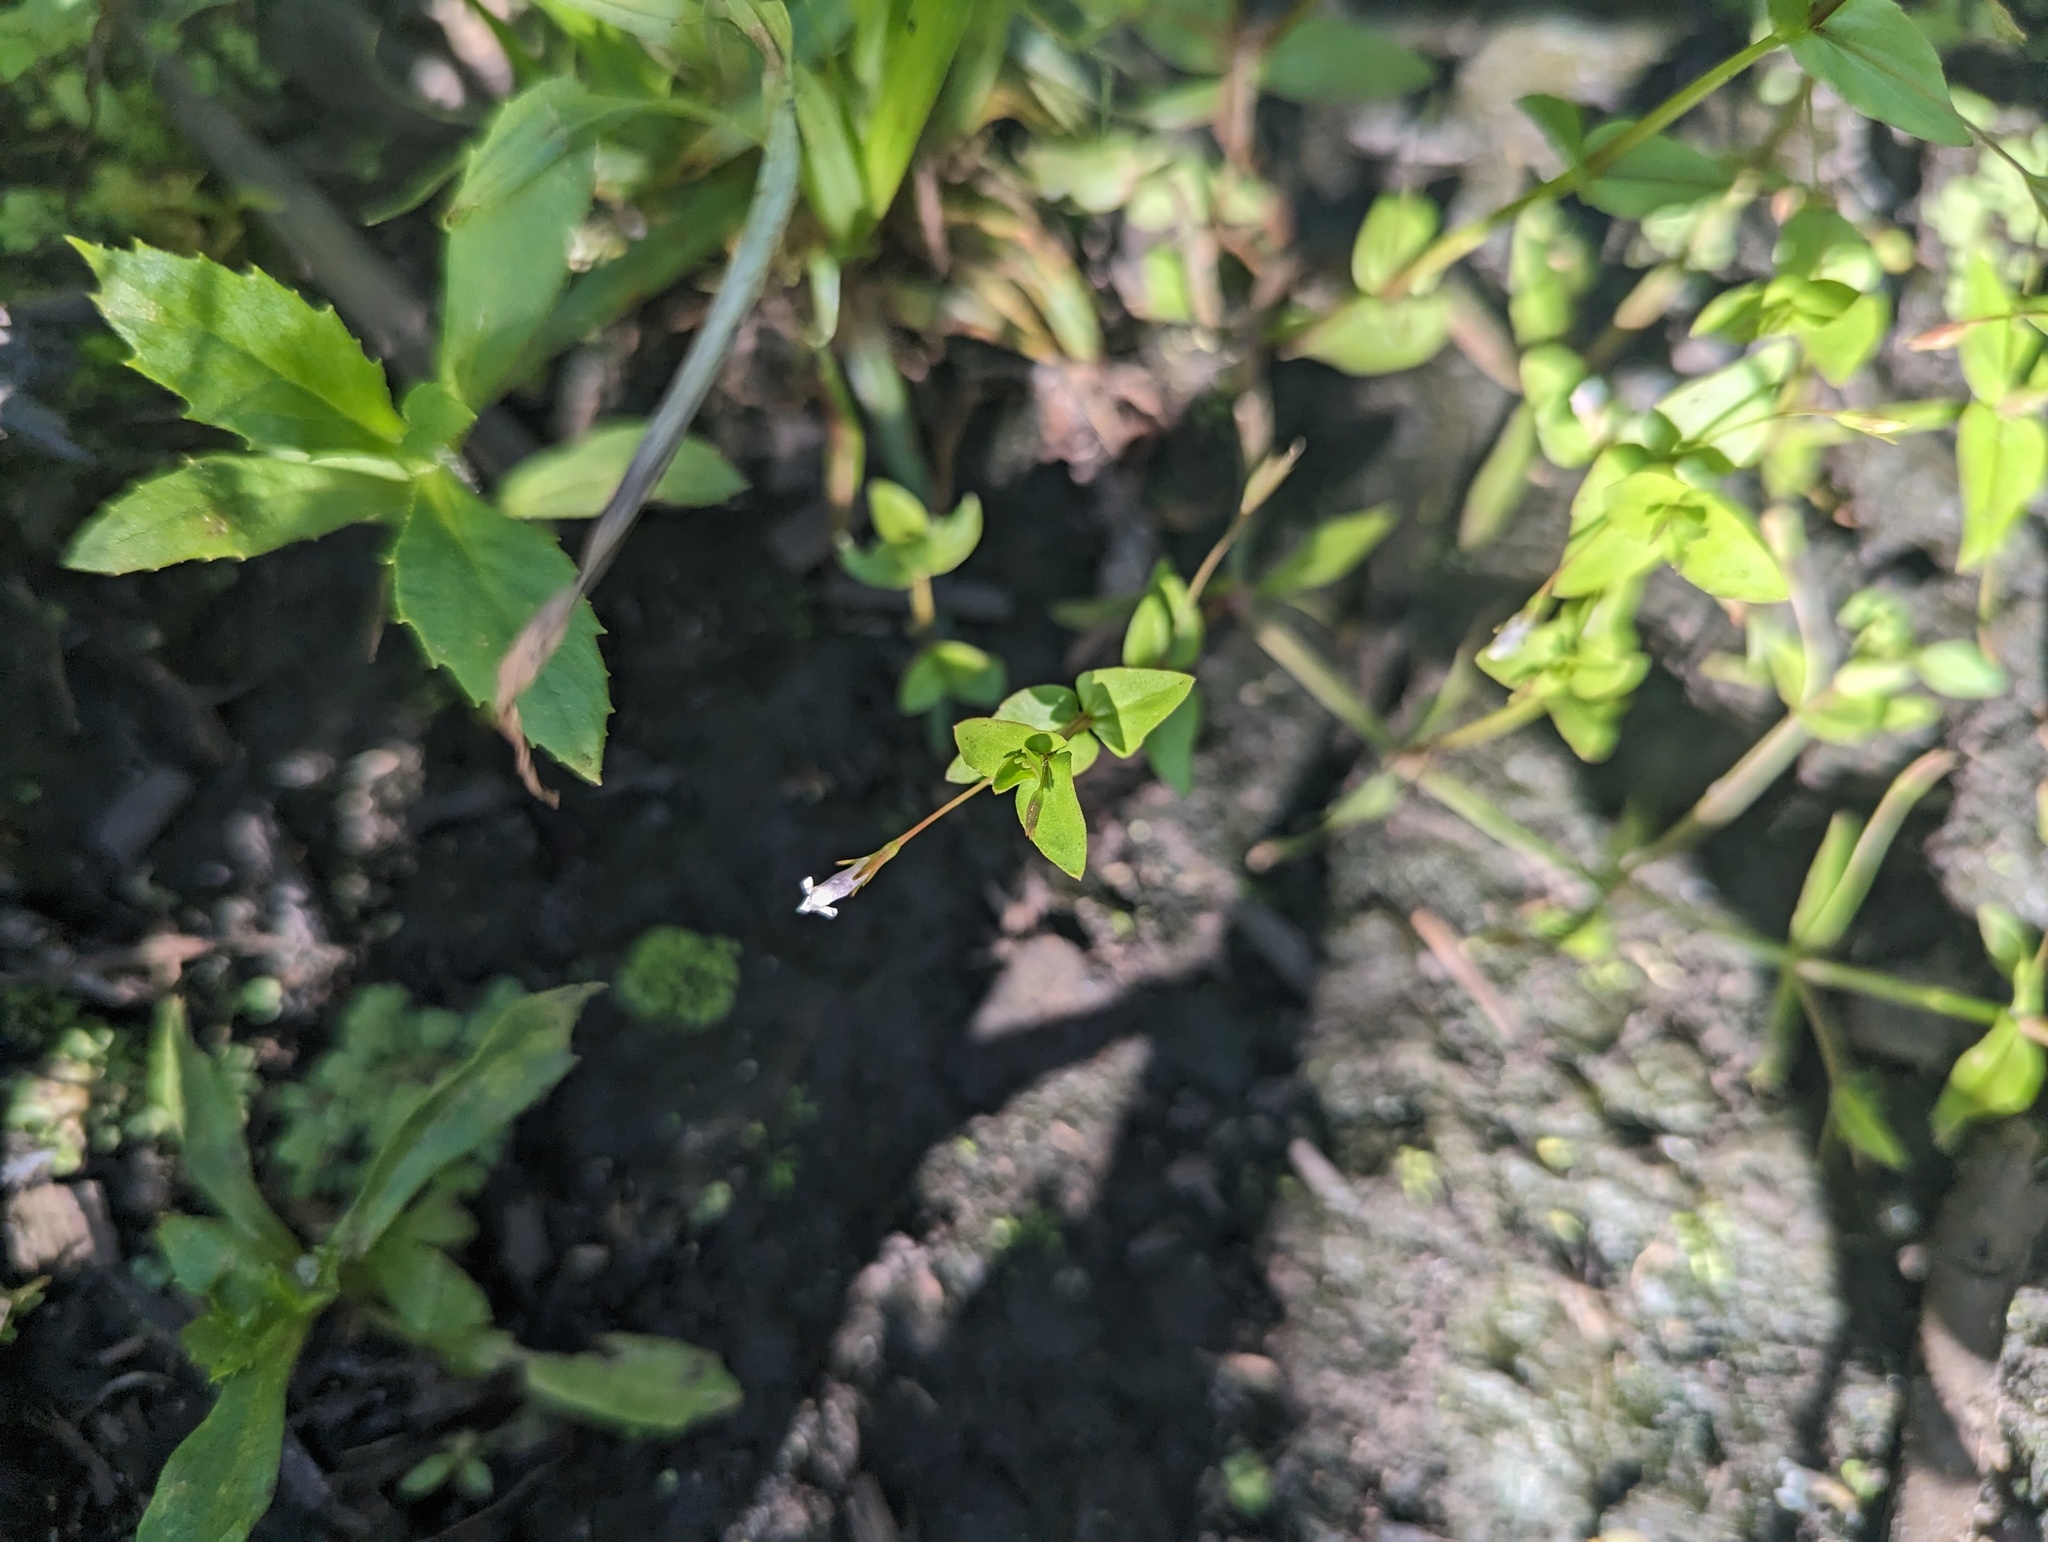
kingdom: Plantae
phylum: Tracheophyta
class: Magnoliopsida
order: Lamiales
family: Linderniaceae
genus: Lindernia
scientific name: Lindernia dubia
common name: Annual false pimpernel
